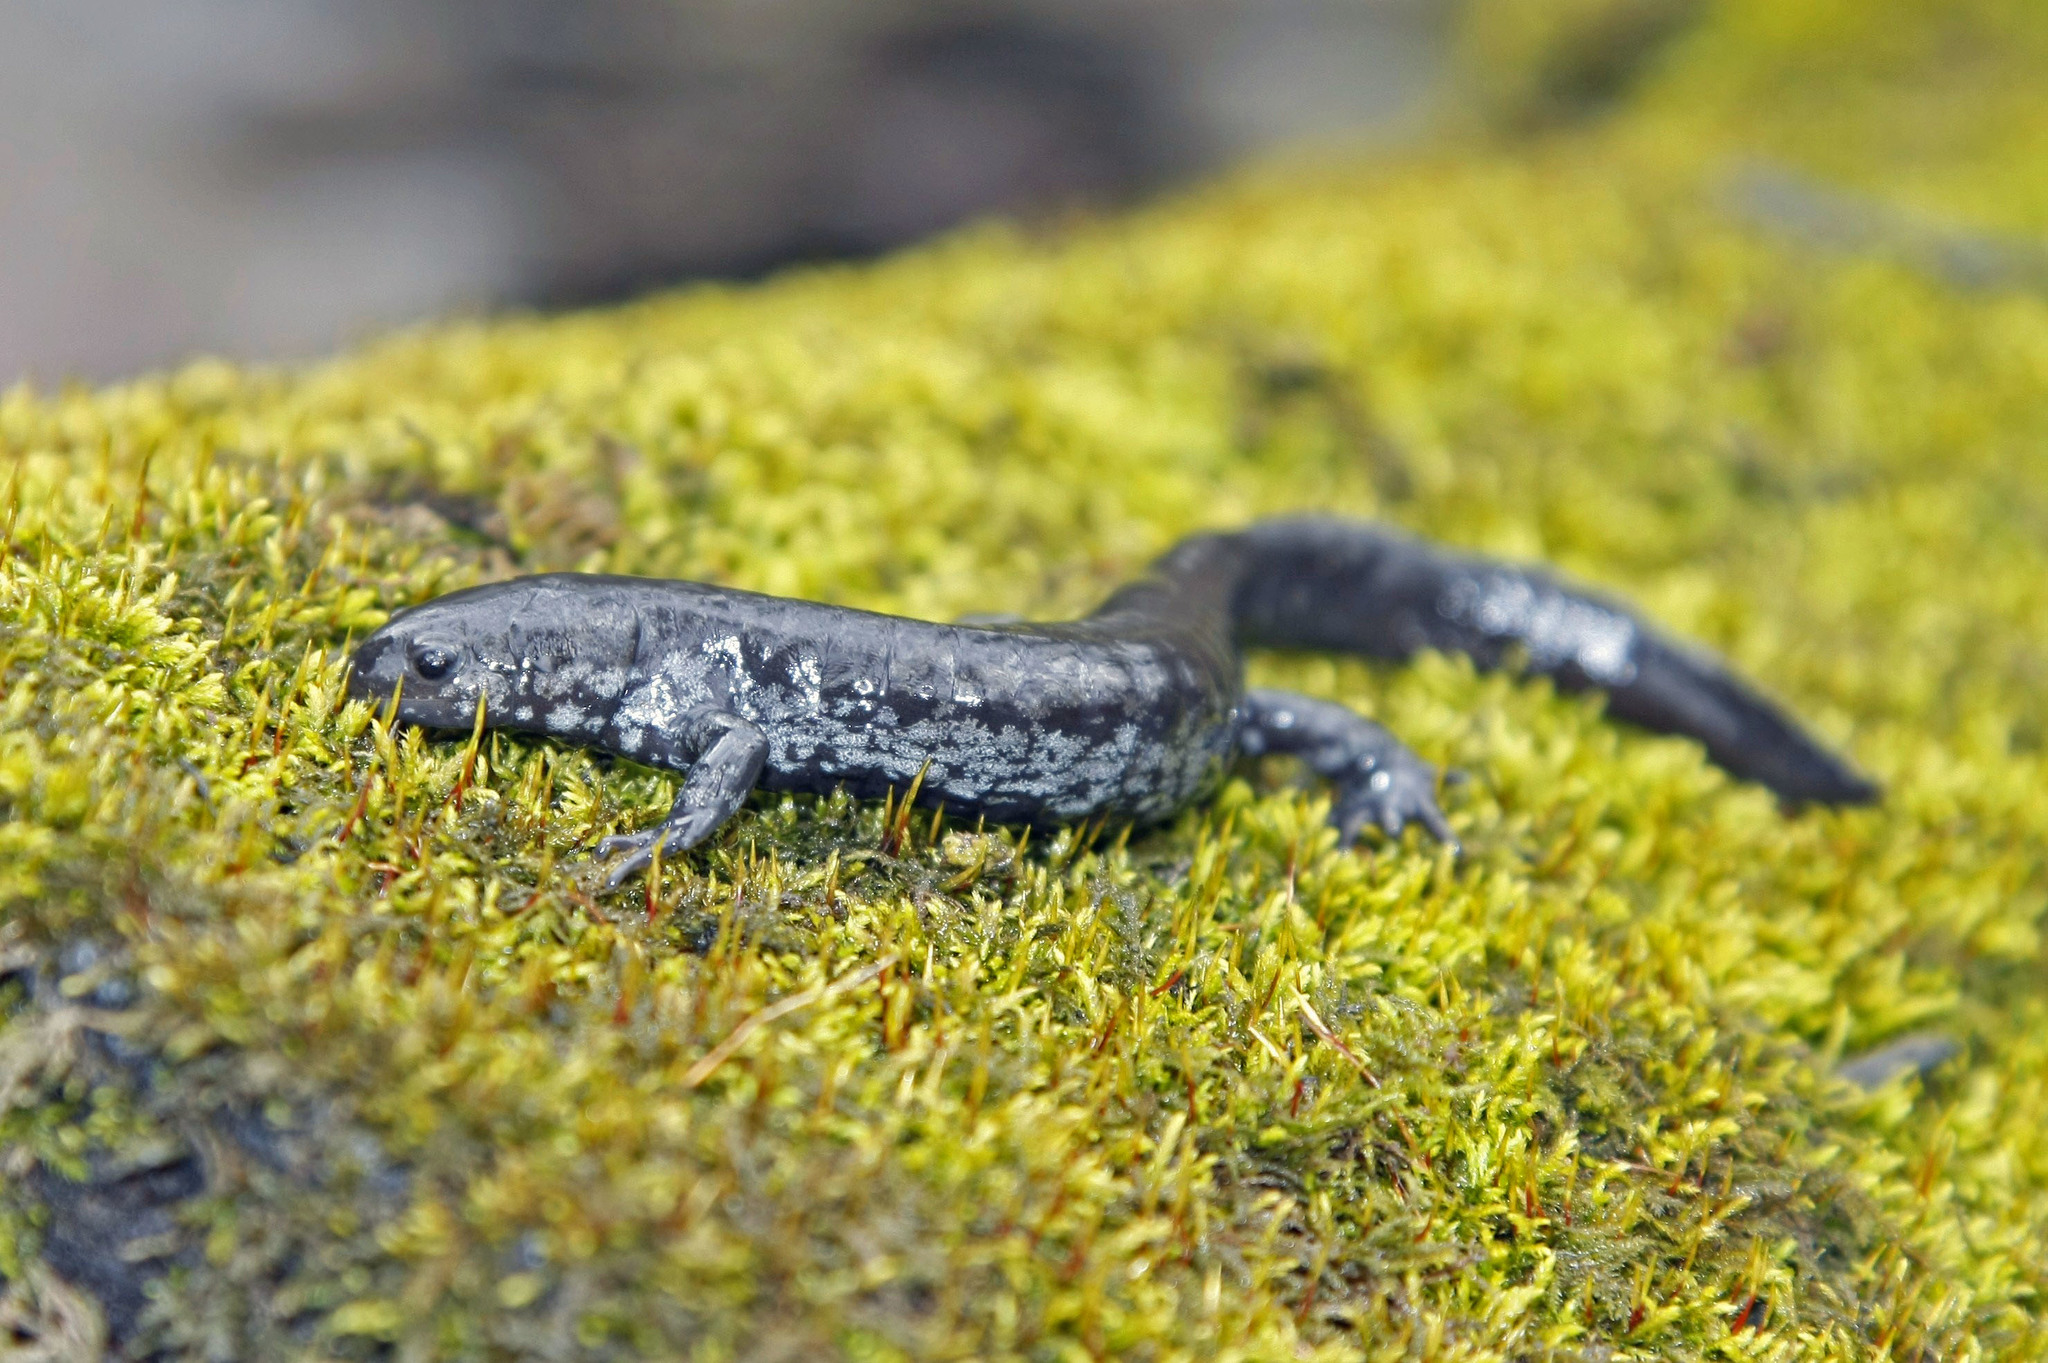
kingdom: Animalia
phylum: Chordata
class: Amphibia
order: Caudata
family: Ambystomatidae
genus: Ambystoma
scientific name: Ambystoma texanum
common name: Small-mouth salamander
